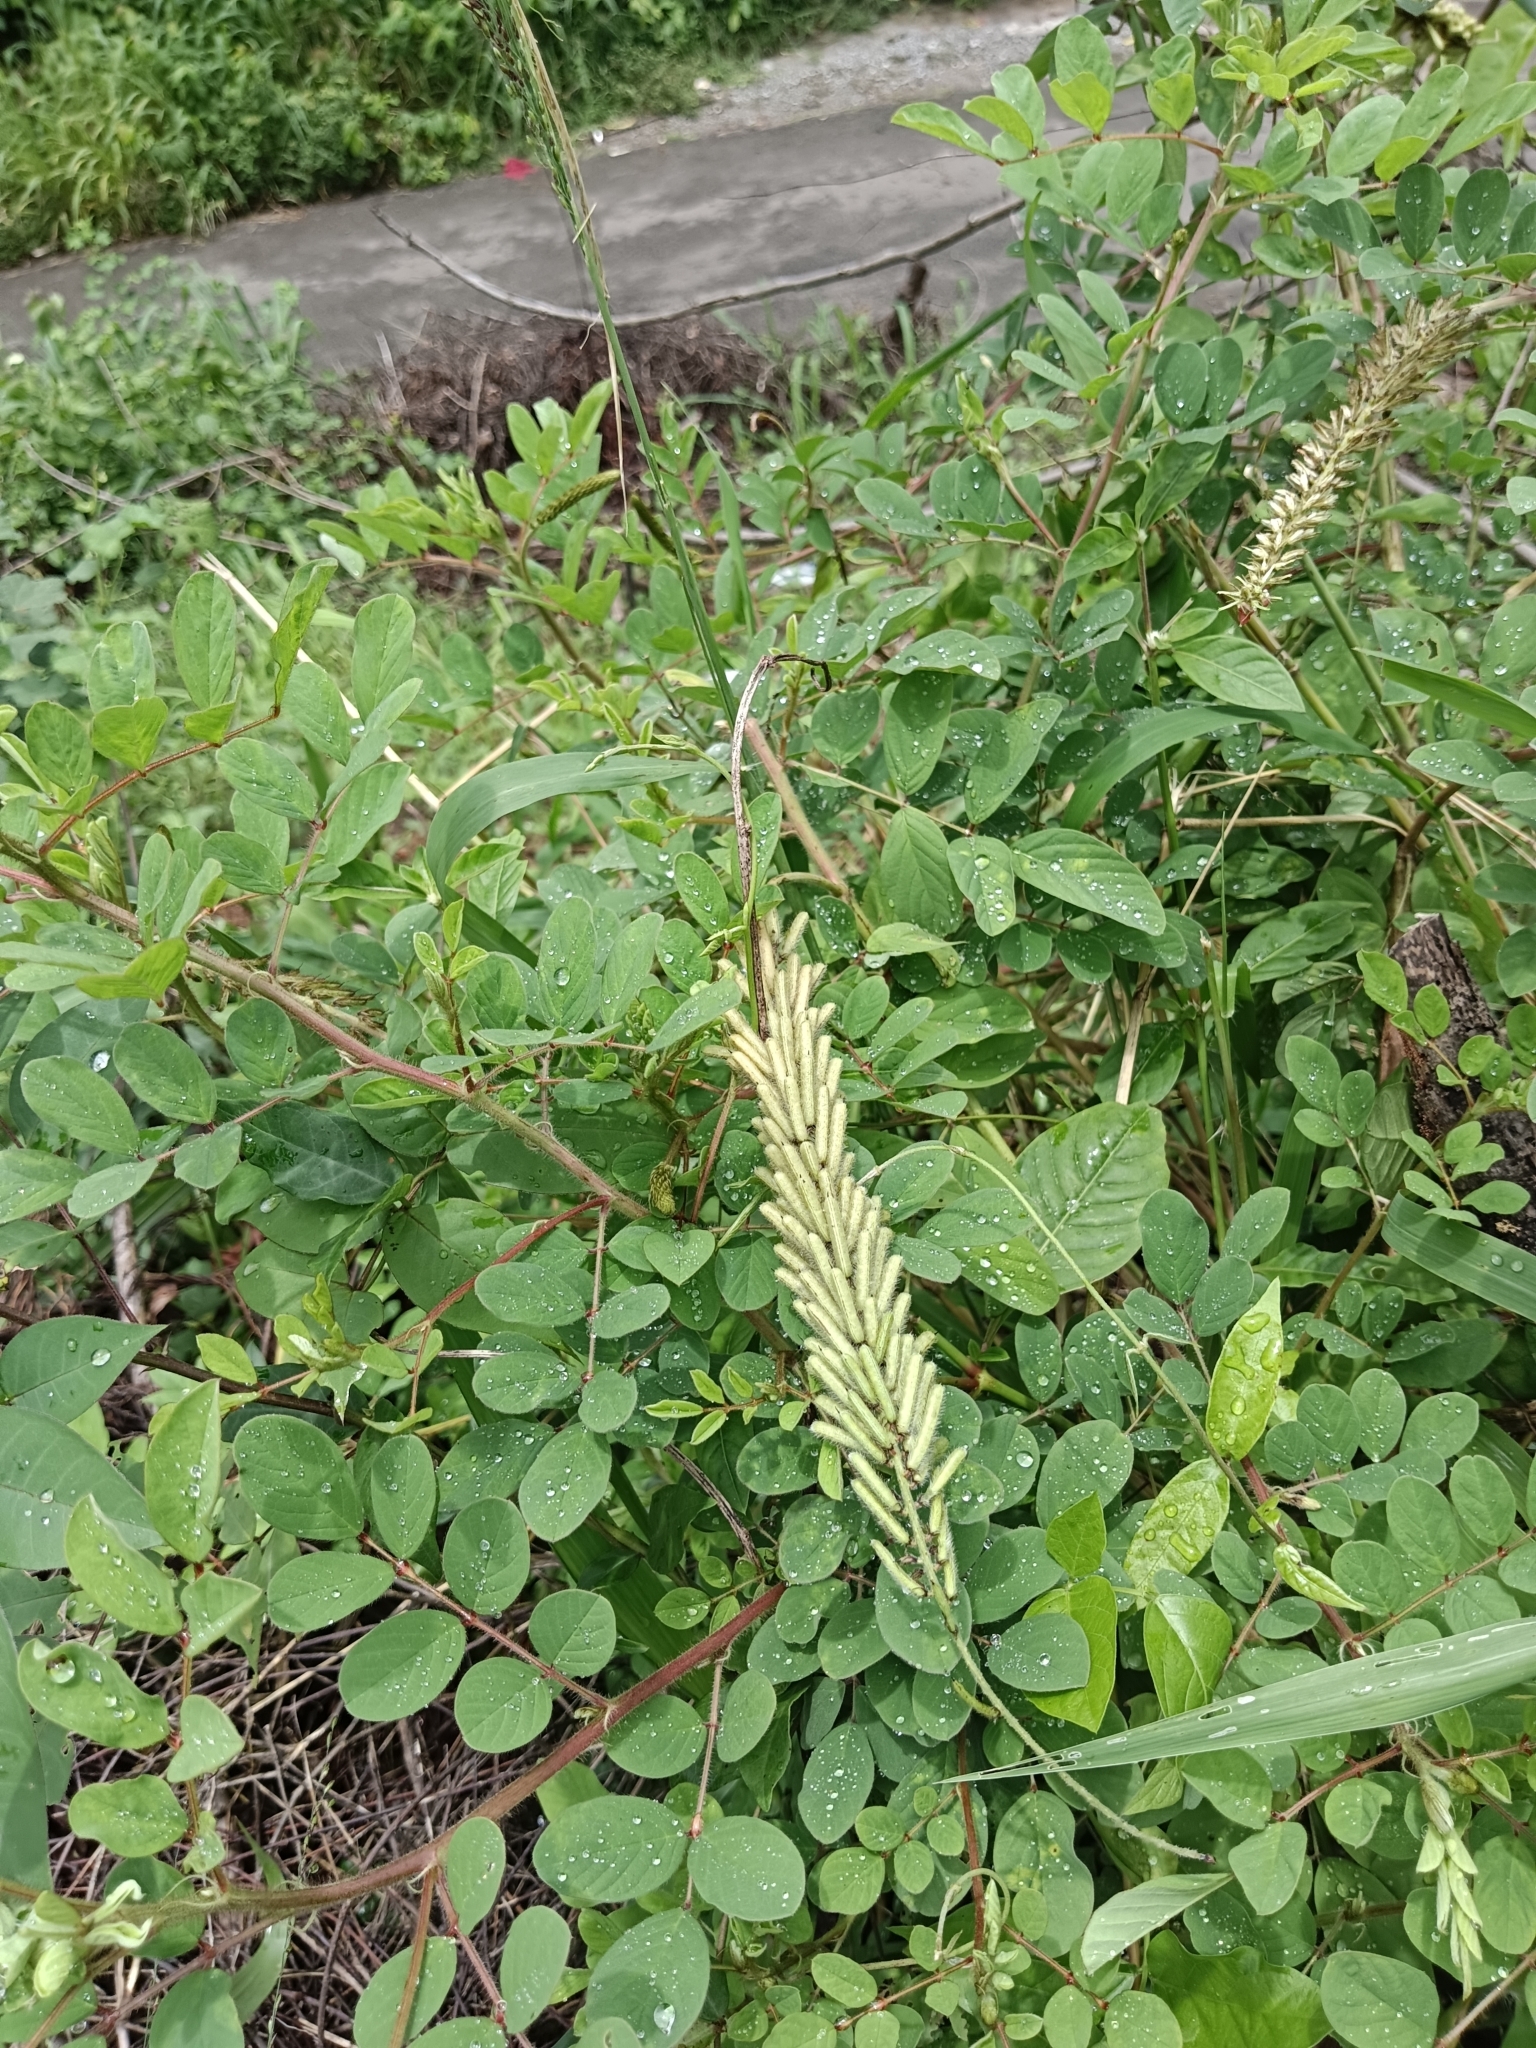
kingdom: Plantae
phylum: Tracheophyta
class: Magnoliopsida
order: Fabales
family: Fabaceae
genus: Indigofera
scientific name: Indigofera hirsuta
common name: Hairy indigo
